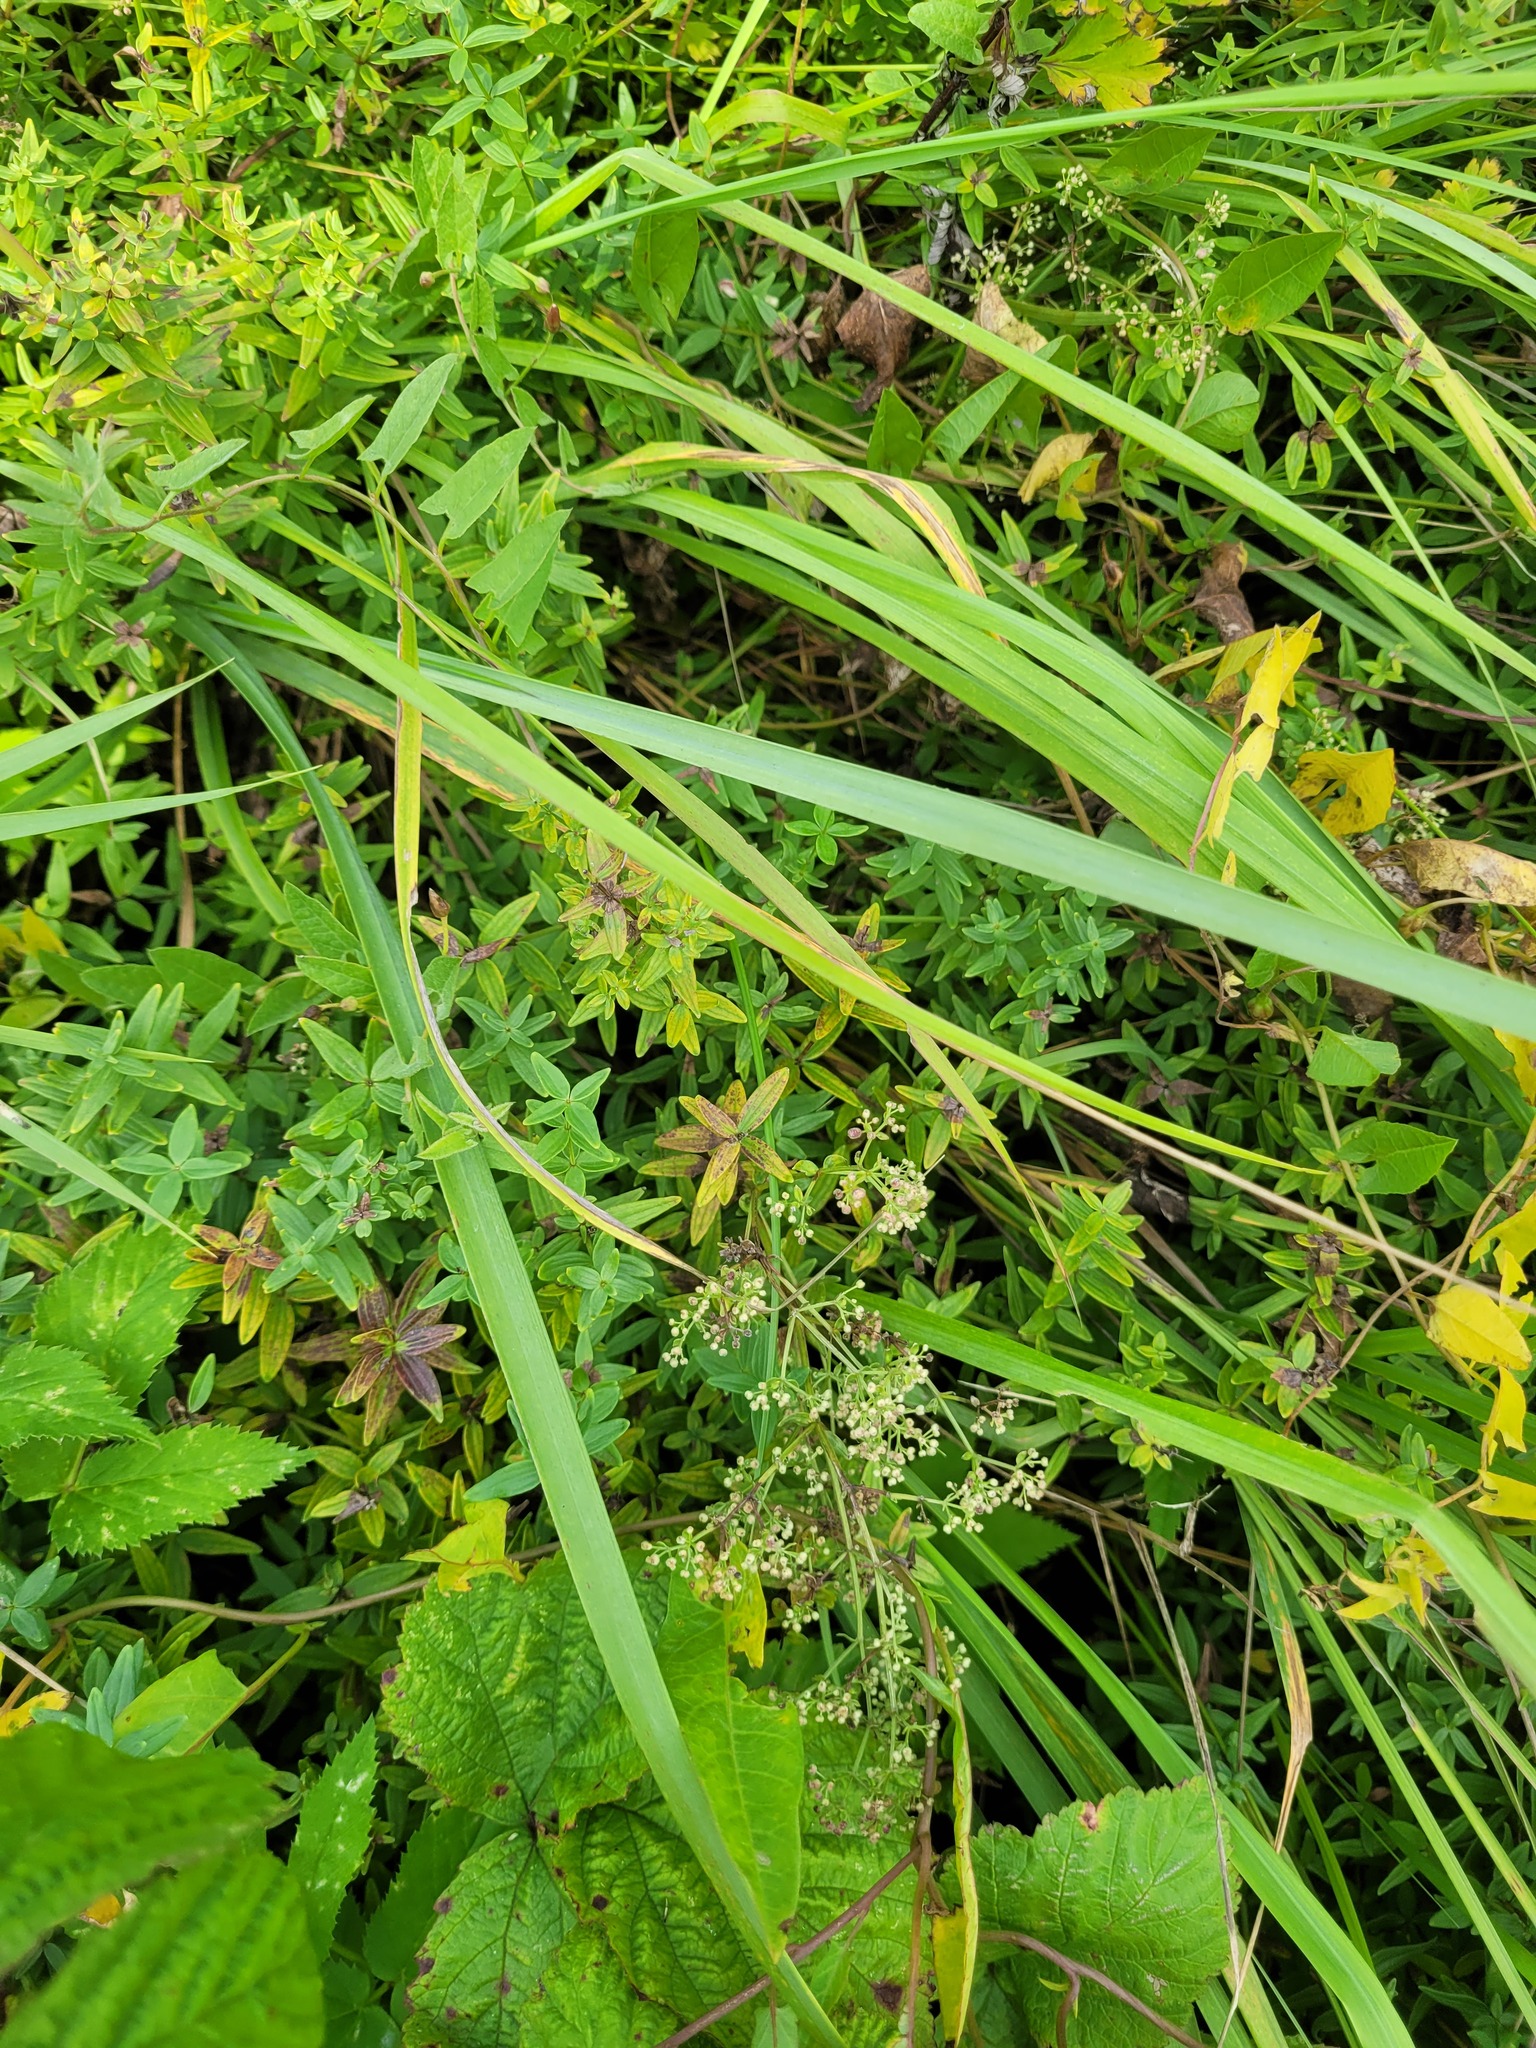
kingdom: Plantae
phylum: Tracheophyta
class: Magnoliopsida
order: Gentianales
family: Rubiaceae
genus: Galium
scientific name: Galium boreale
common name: Northern bedstraw
